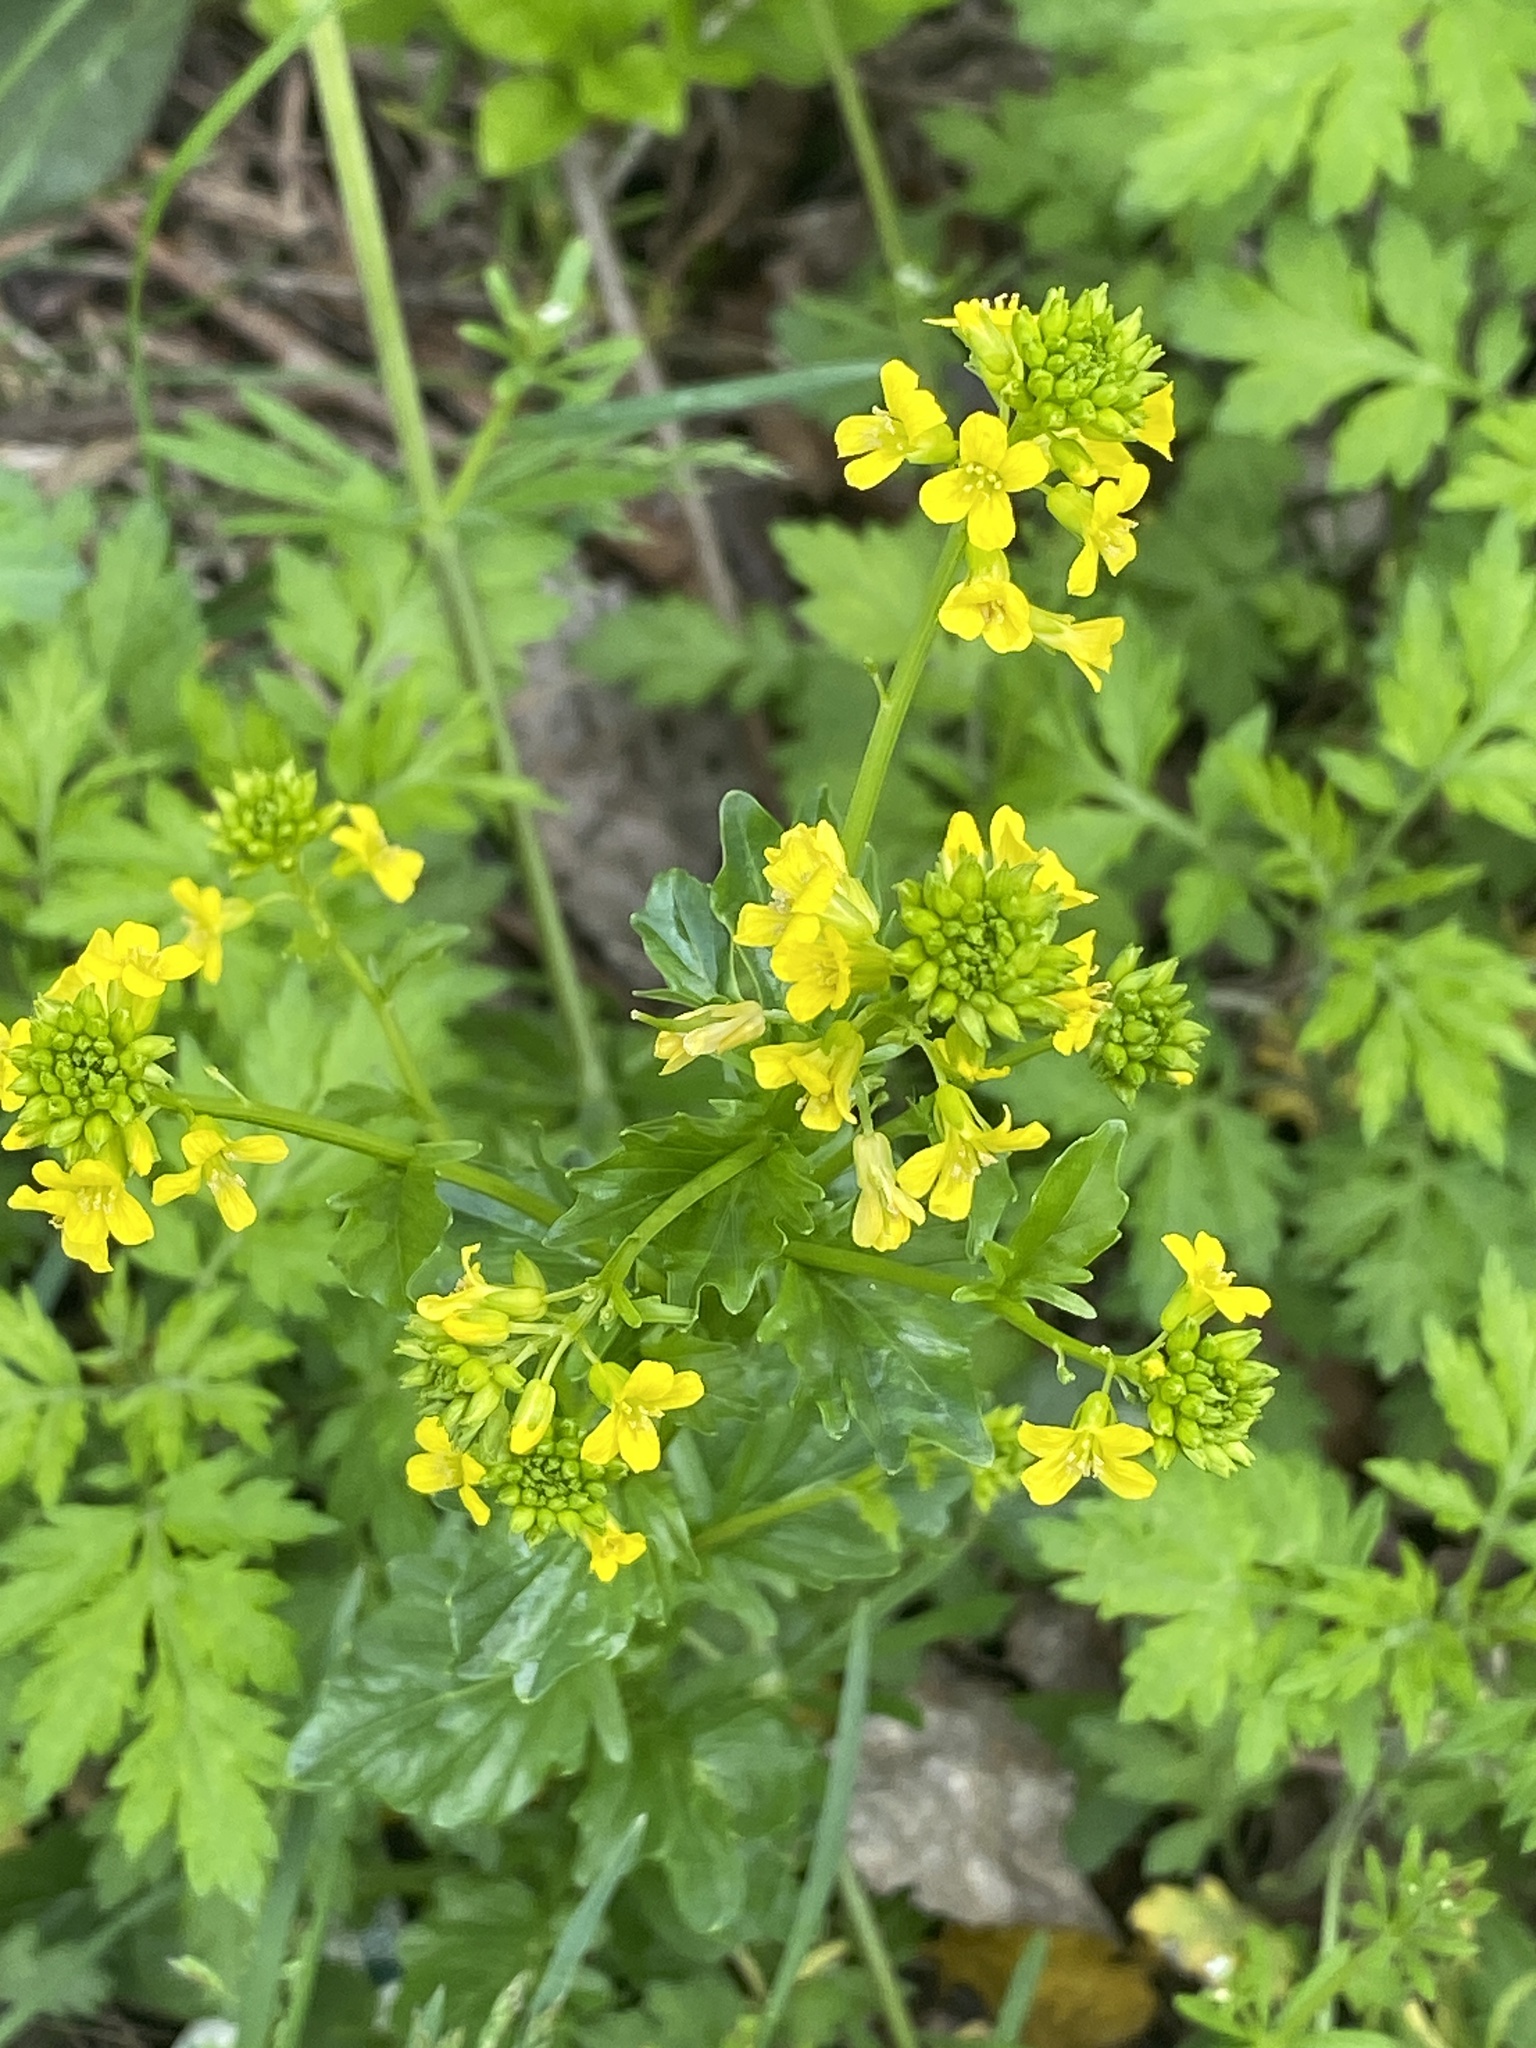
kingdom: Plantae
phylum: Tracheophyta
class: Magnoliopsida
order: Brassicales
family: Brassicaceae
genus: Barbarea
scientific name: Barbarea vulgaris
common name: Cressy-greens
